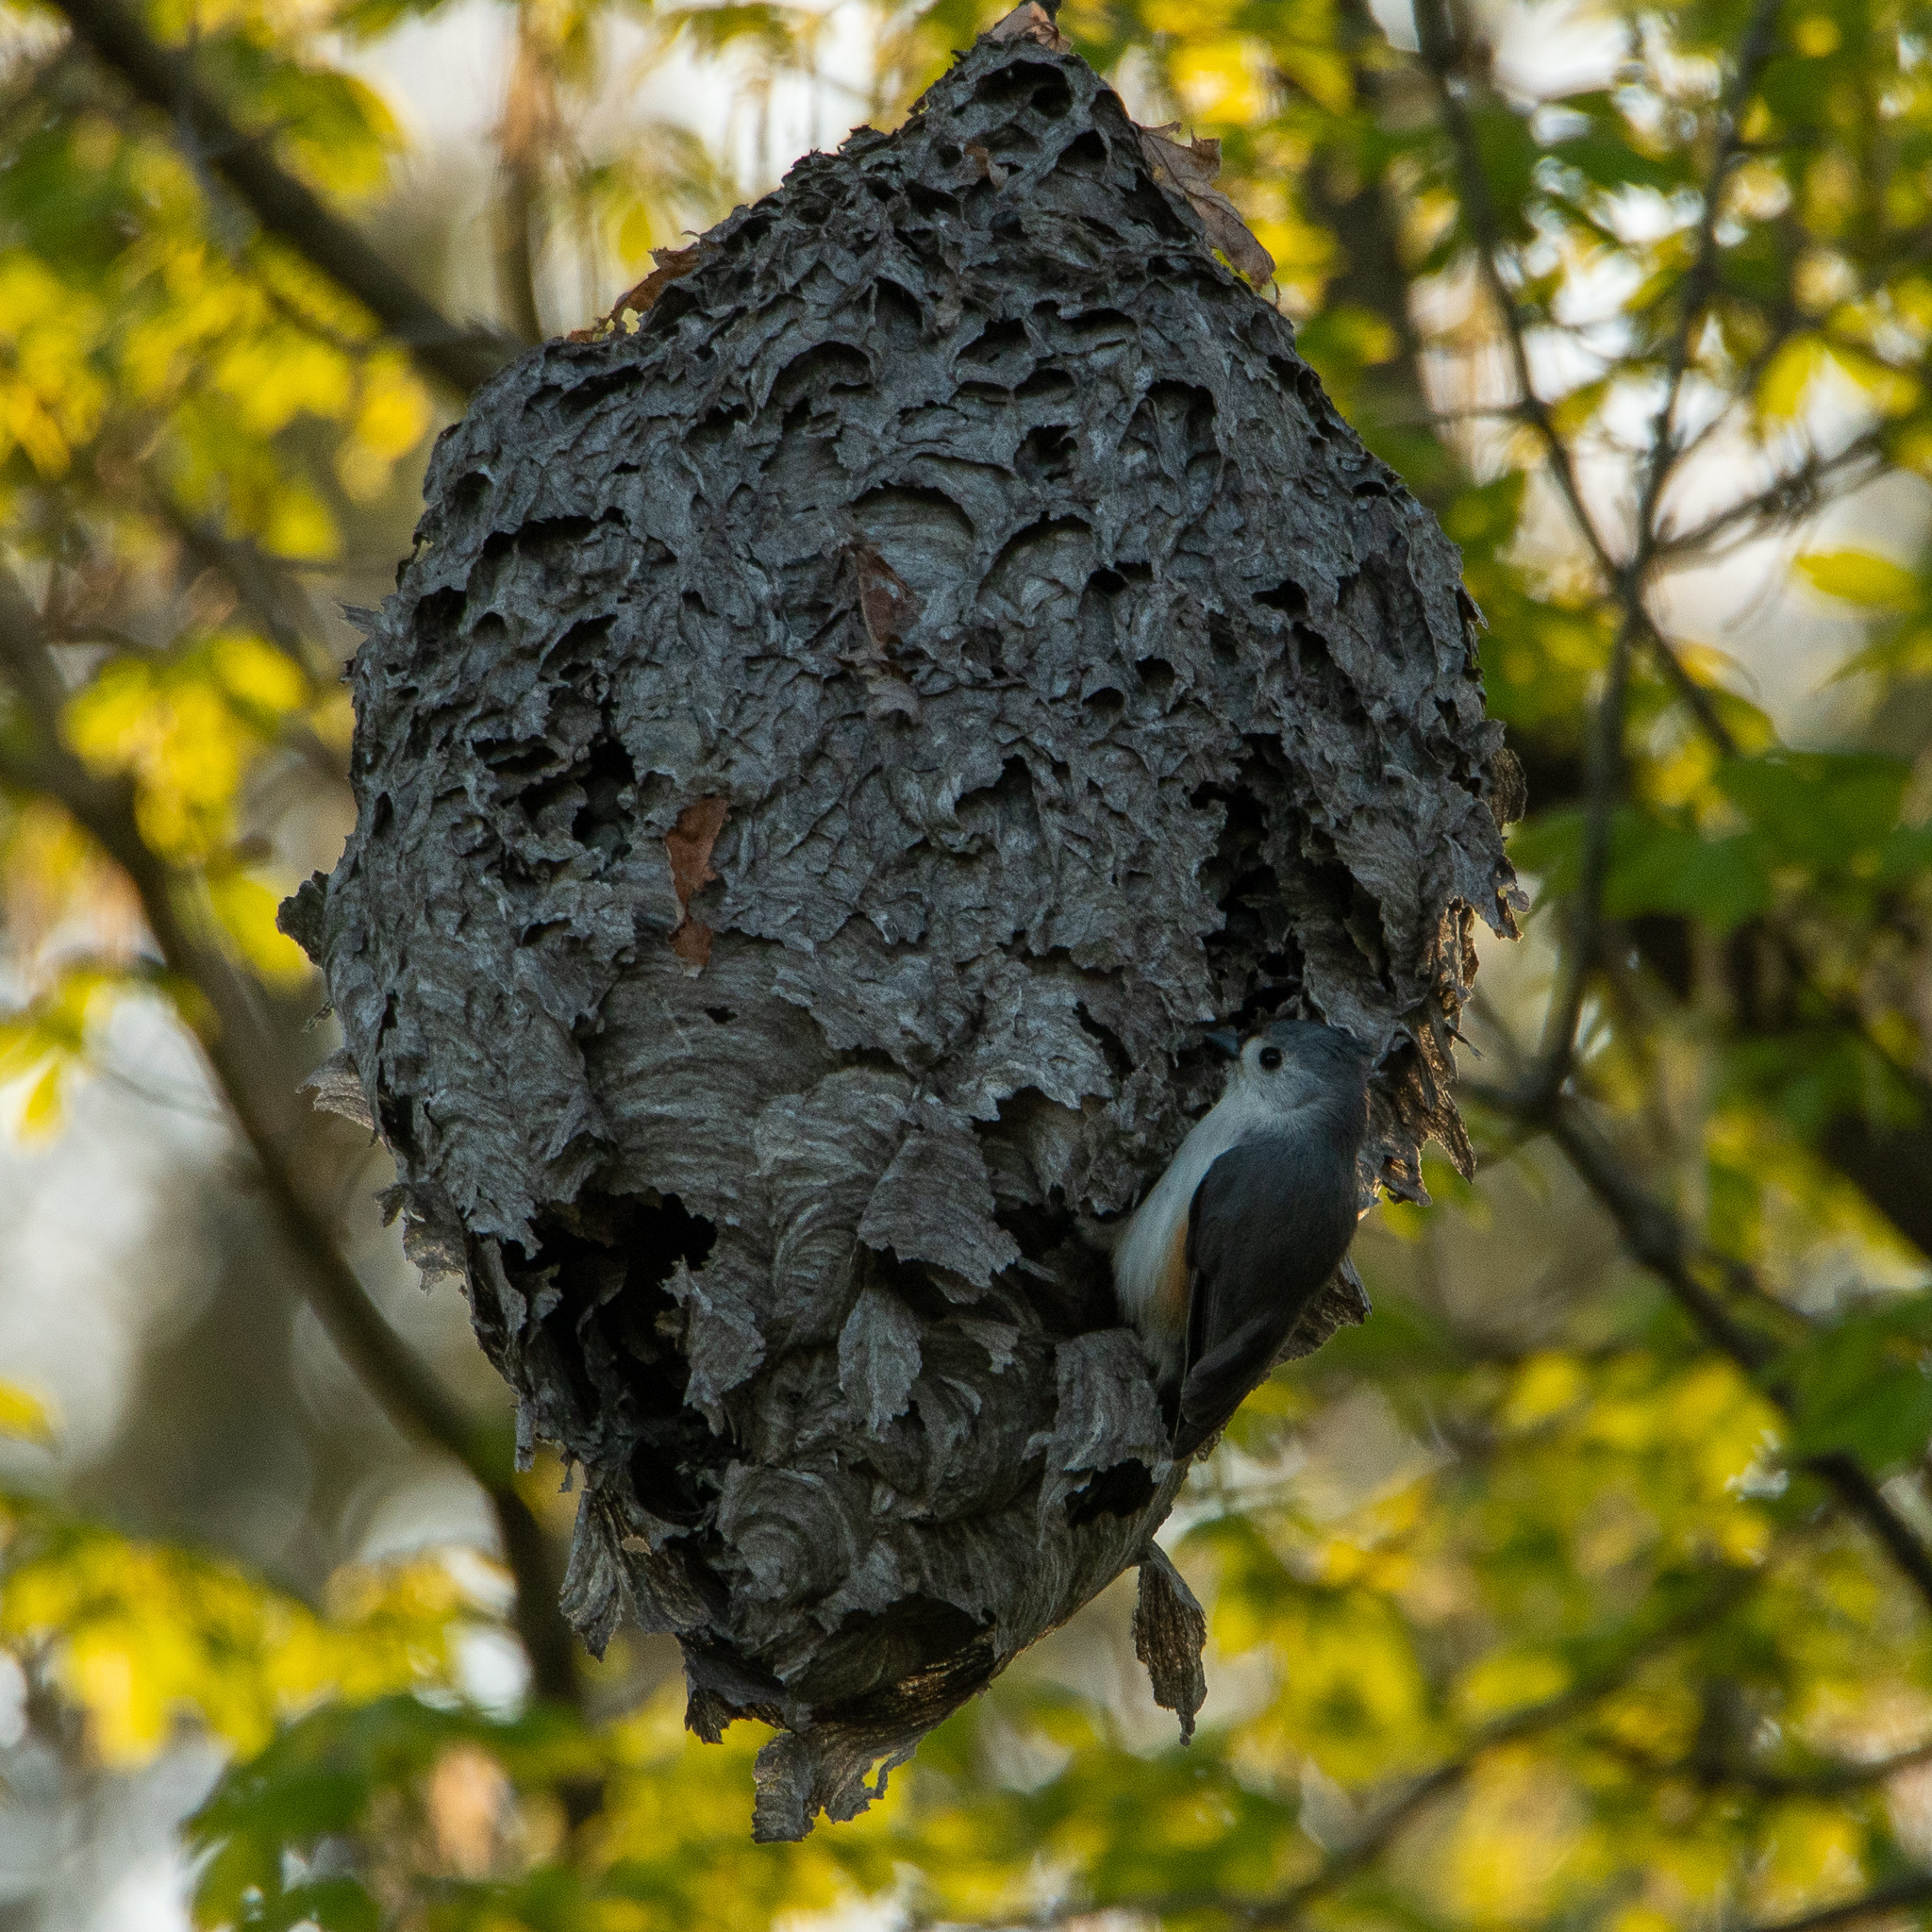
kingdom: Animalia
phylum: Chordata
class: Aves
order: Passeriformes
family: Paridae
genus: Baeolophus
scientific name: Baeolophus bicolor
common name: Tufted titmouse
